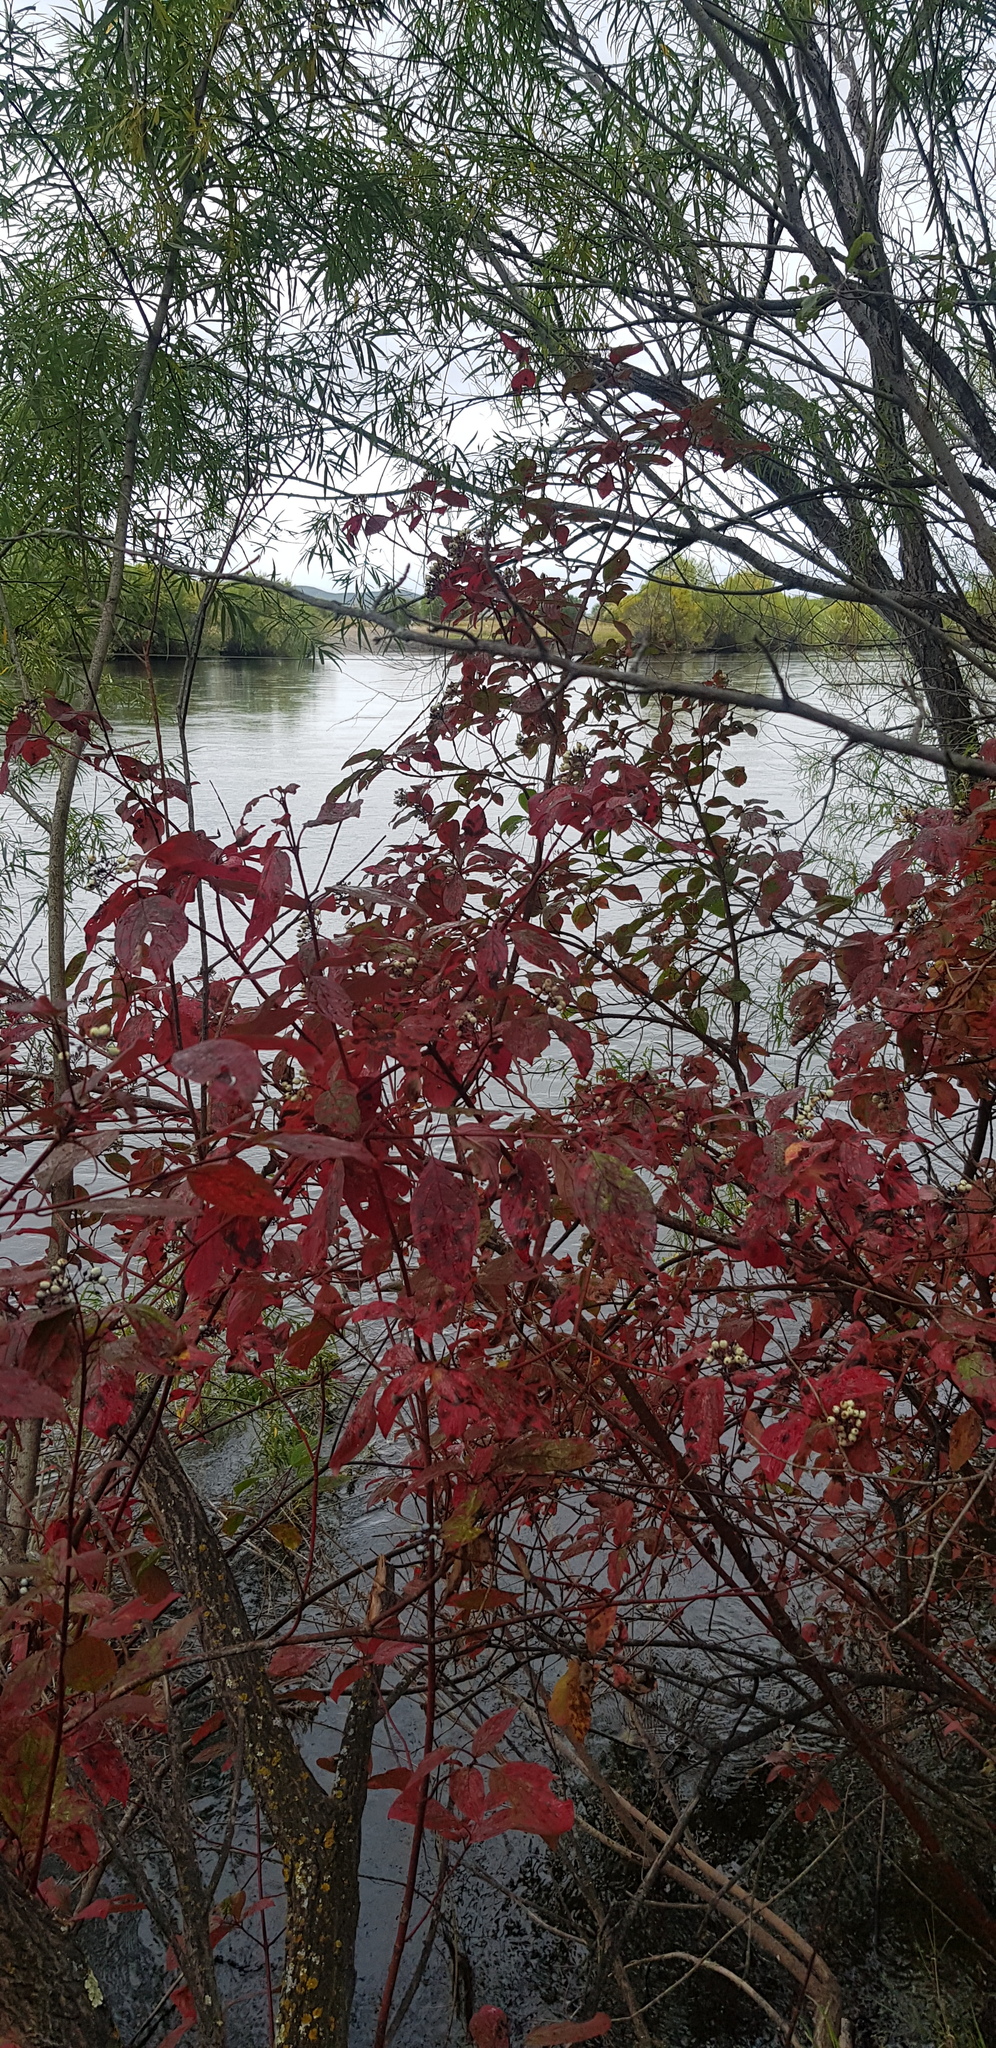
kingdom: Plantae
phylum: Tracheophyta
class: Magnoliopsida
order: Cornales
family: Cornaceae
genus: Cornus
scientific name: Cornus alba
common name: White dogwood
